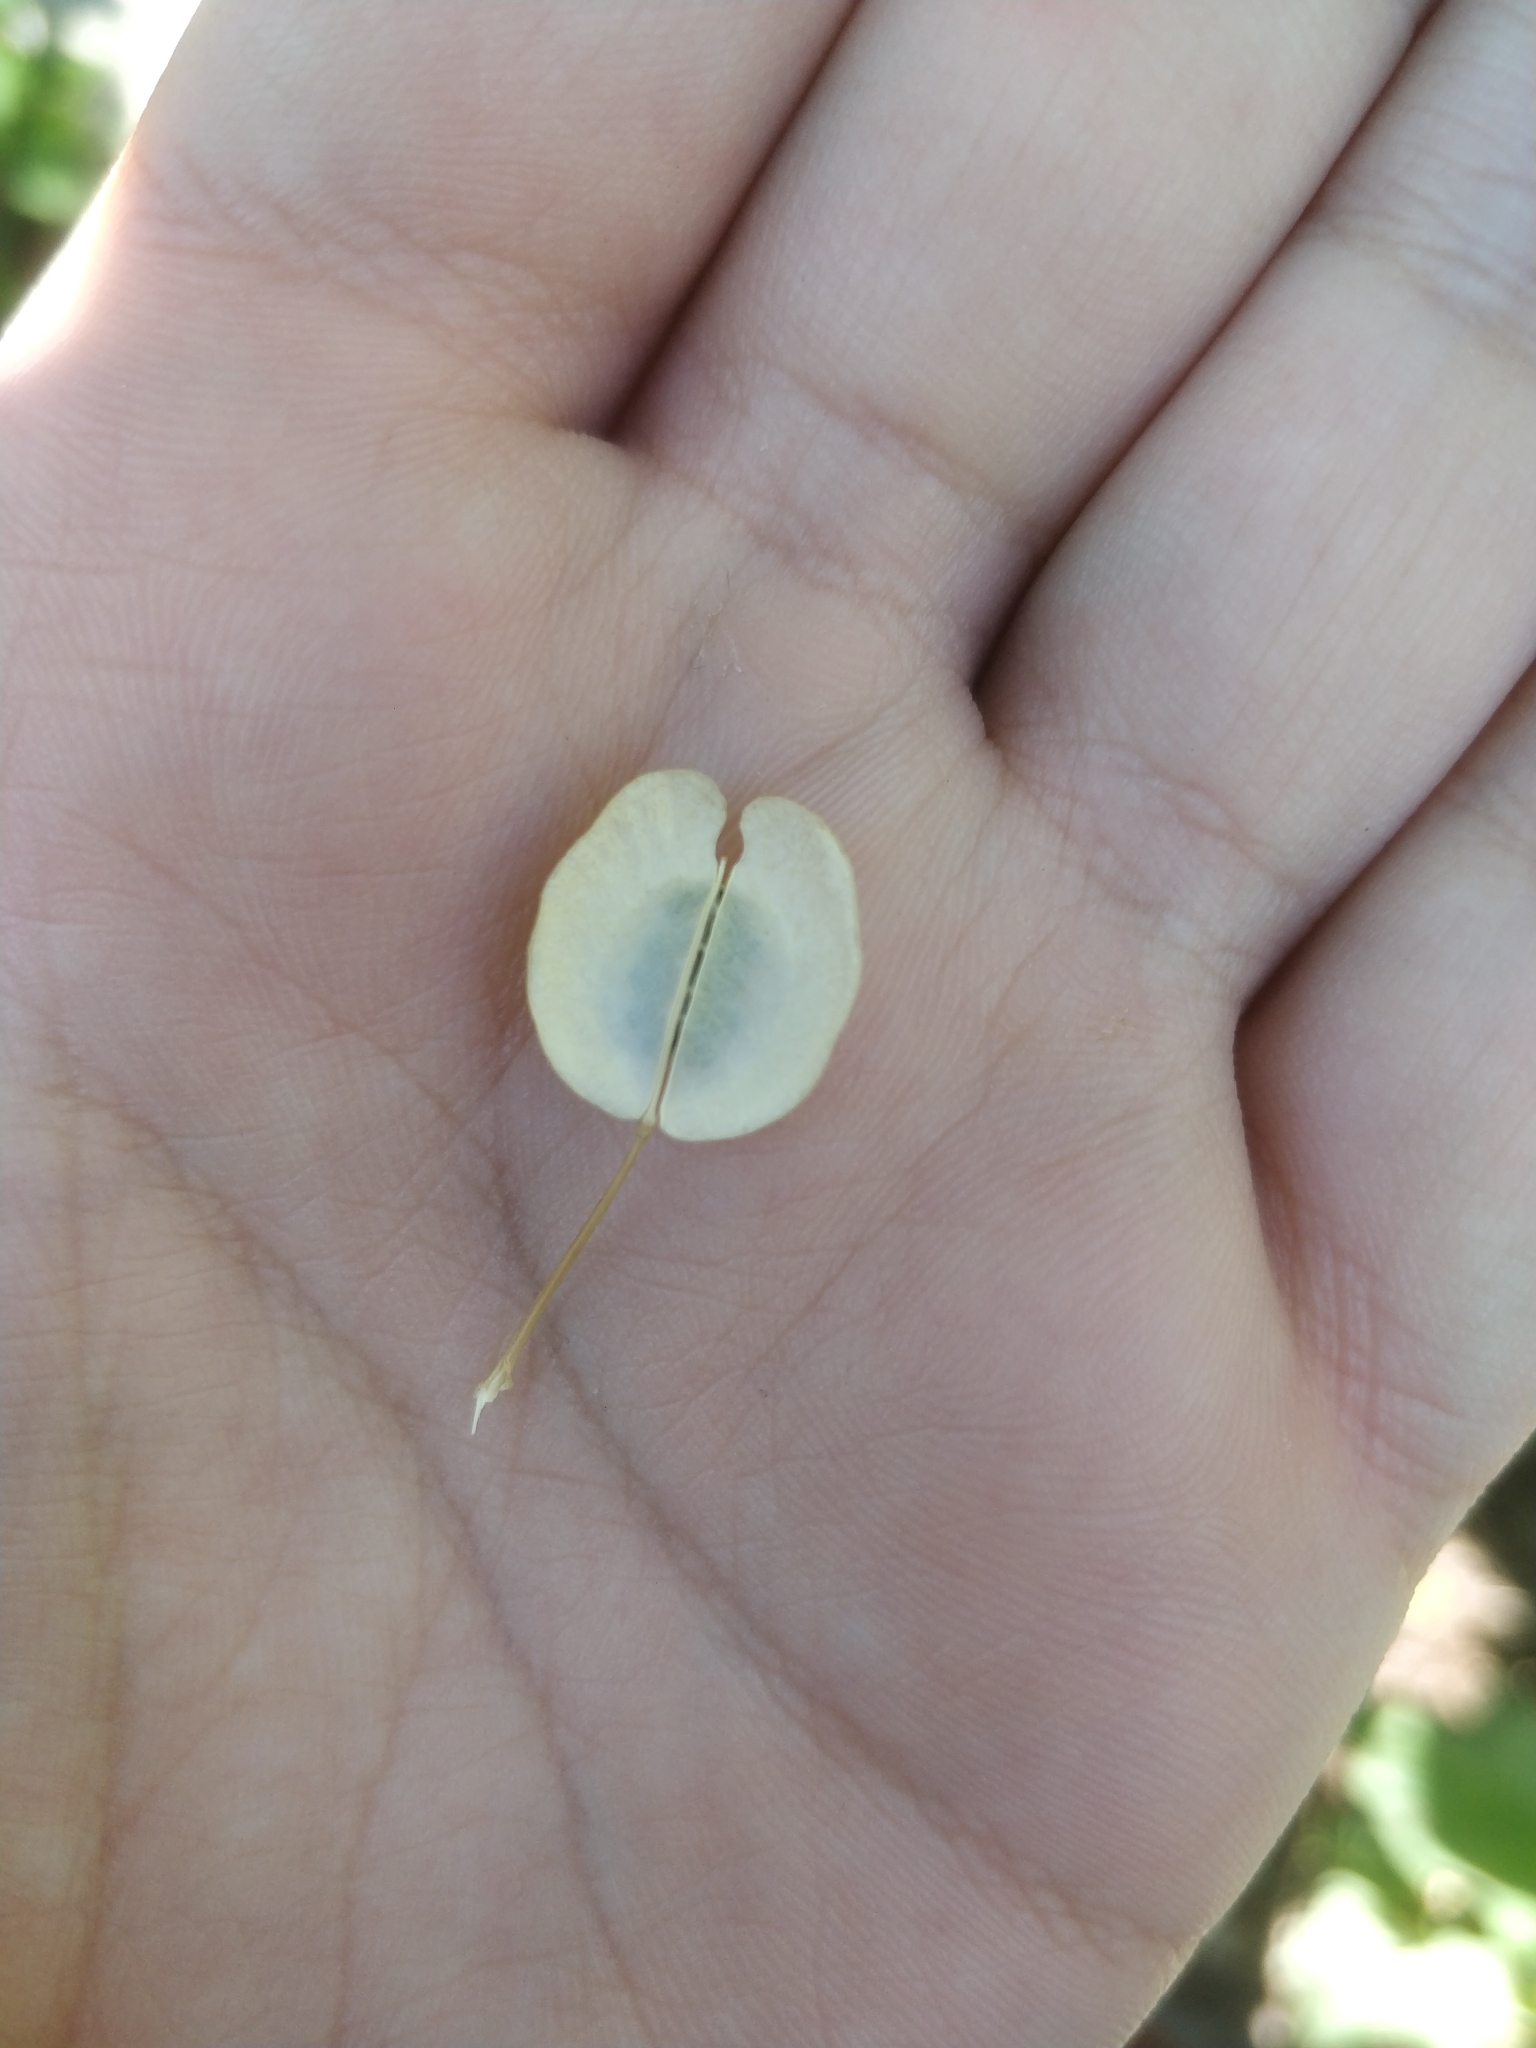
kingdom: Plantae
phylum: Tracheophyta
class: Magnoliopsida
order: Brassicales
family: Brassicaceae
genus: Thlaspi
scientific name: Thlaspi arvense
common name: Field pennycress
